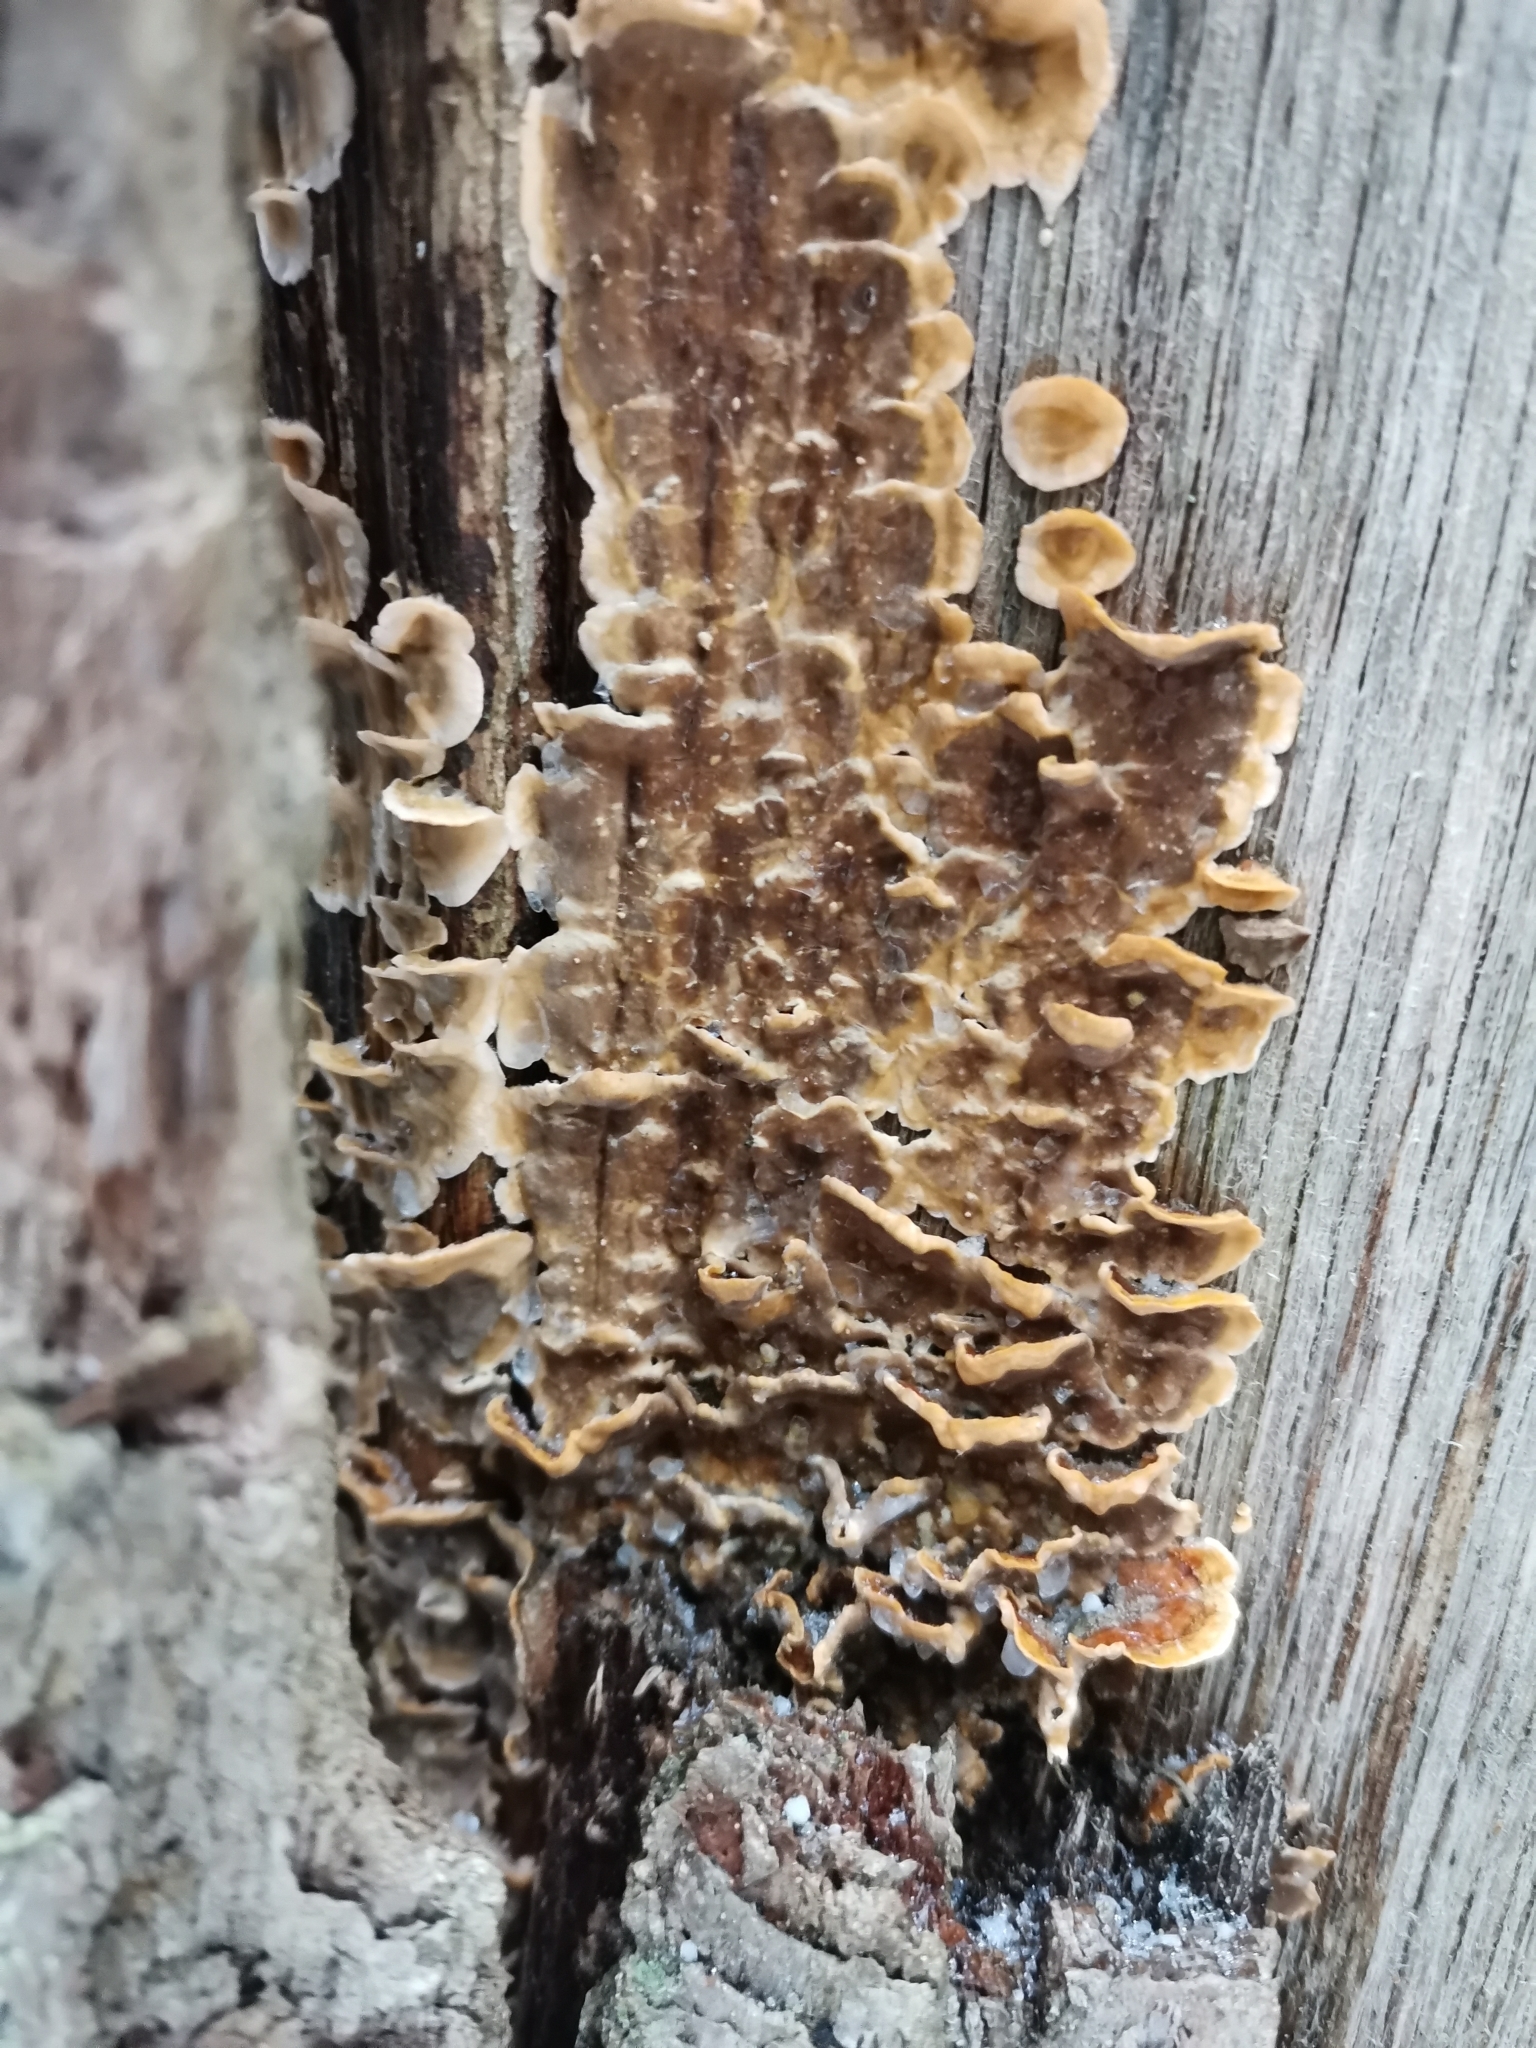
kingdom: Fungi
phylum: Basidiomycota
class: Agaricomycetes
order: Russulales
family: Stereaceae
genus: Stereum
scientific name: Stereum hirsutum
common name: Hairy curtain crust
